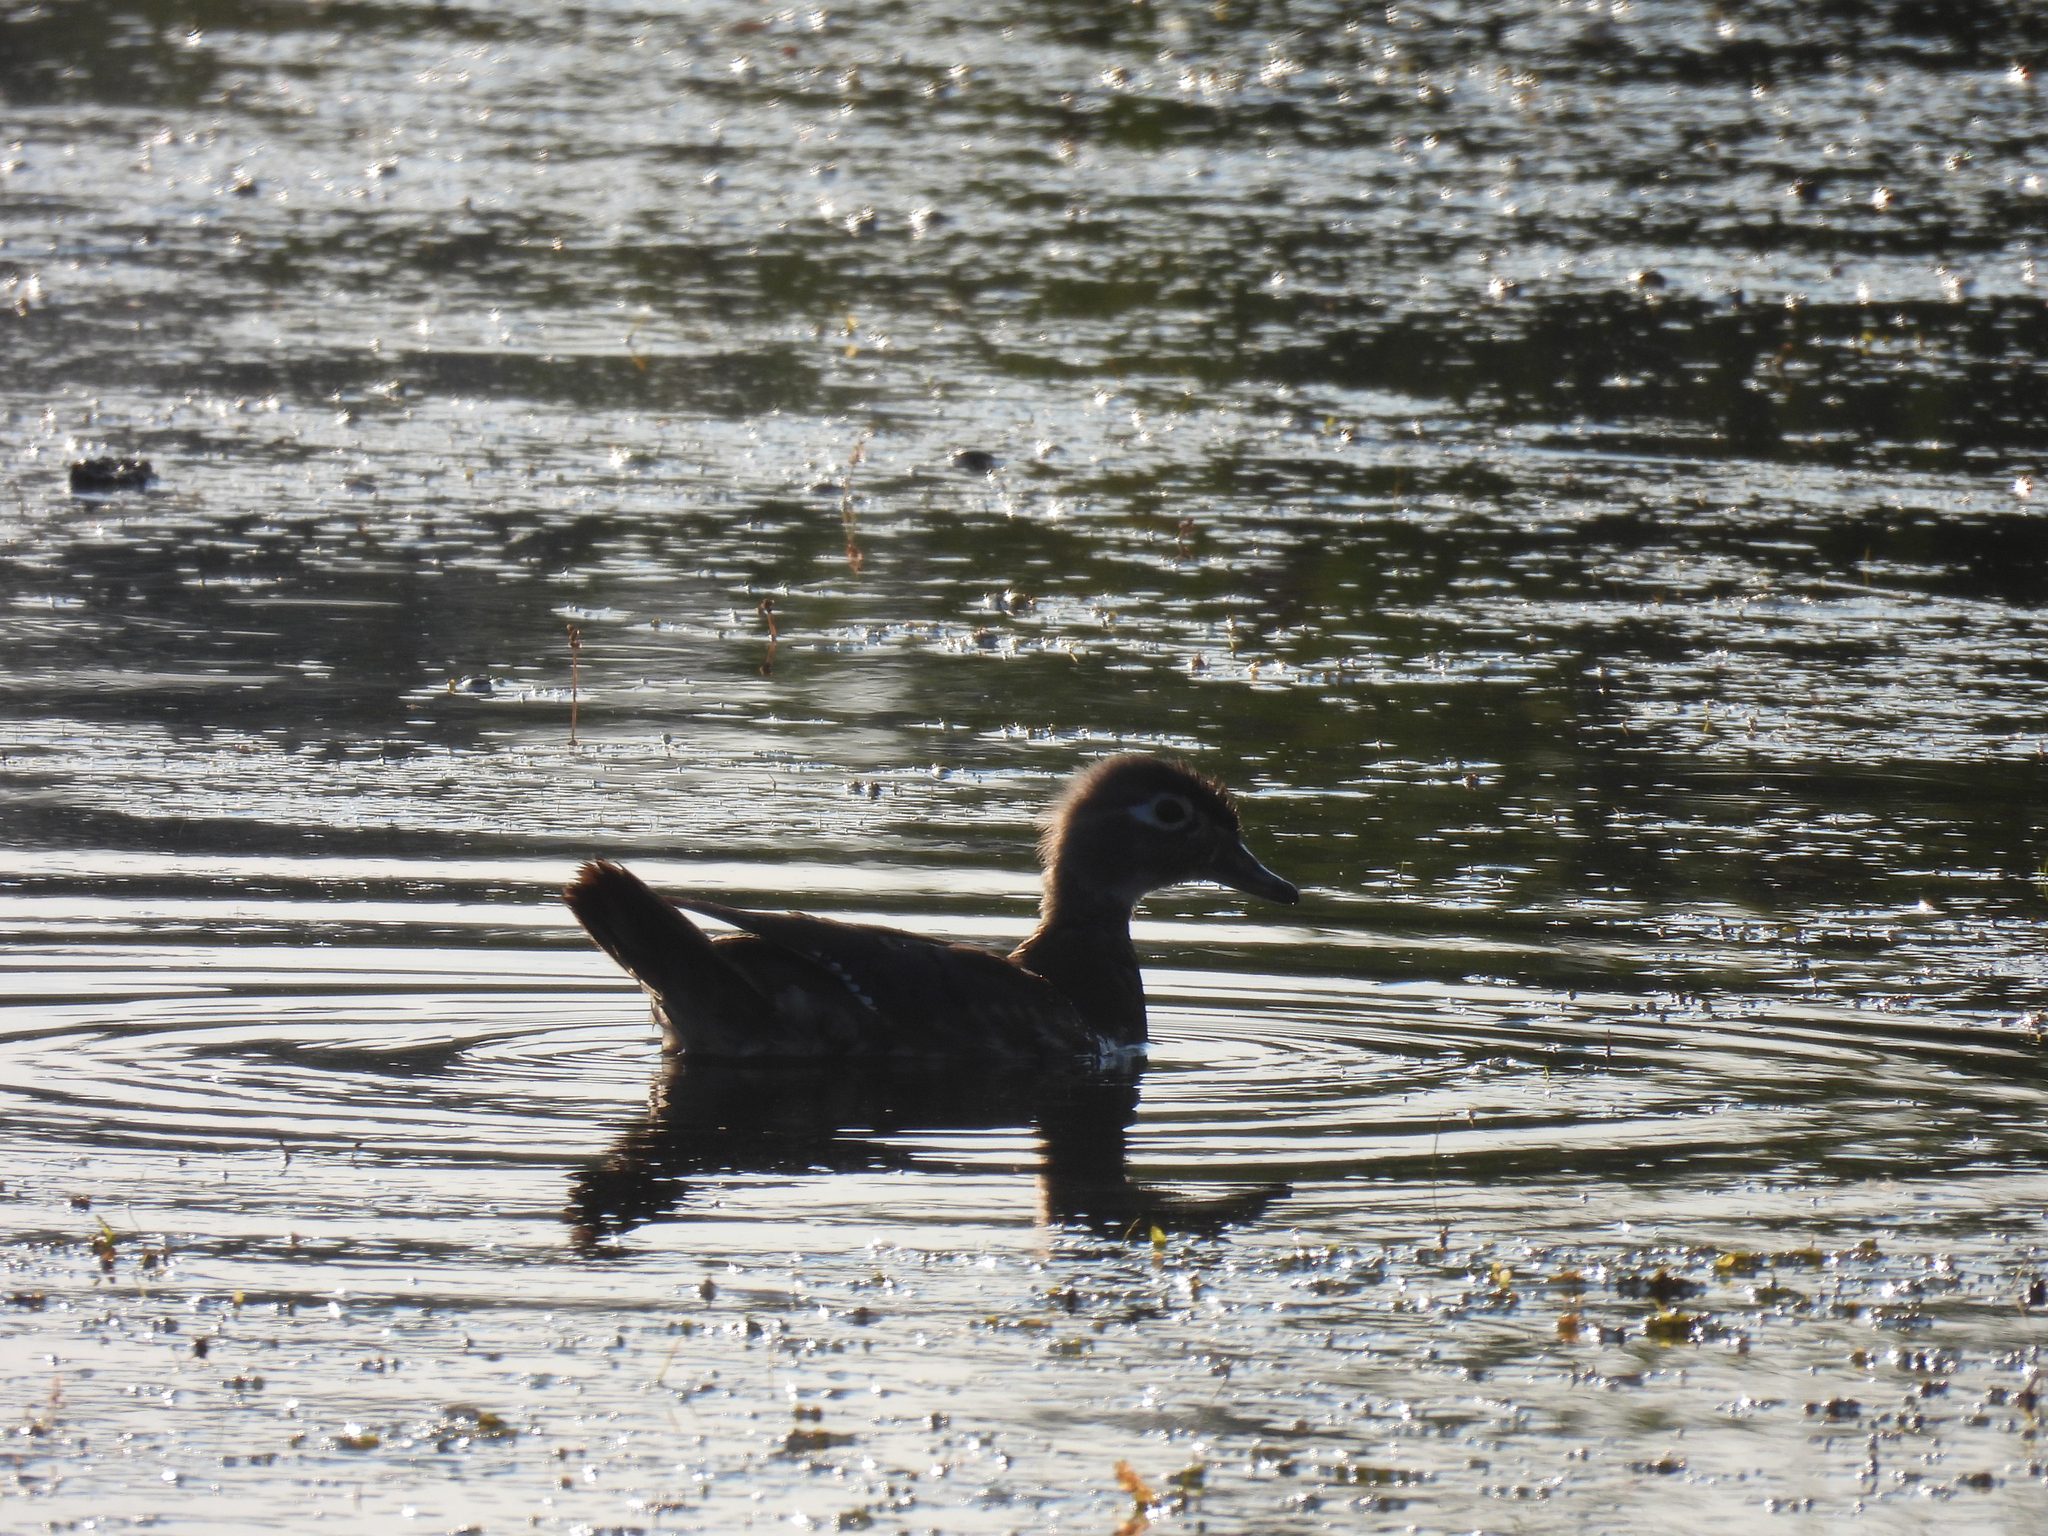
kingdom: Animalia
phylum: Chordata
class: Aves
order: Anseriformes
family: Anatidae
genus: Aix
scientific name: Aix sponsa
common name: Wood duck
